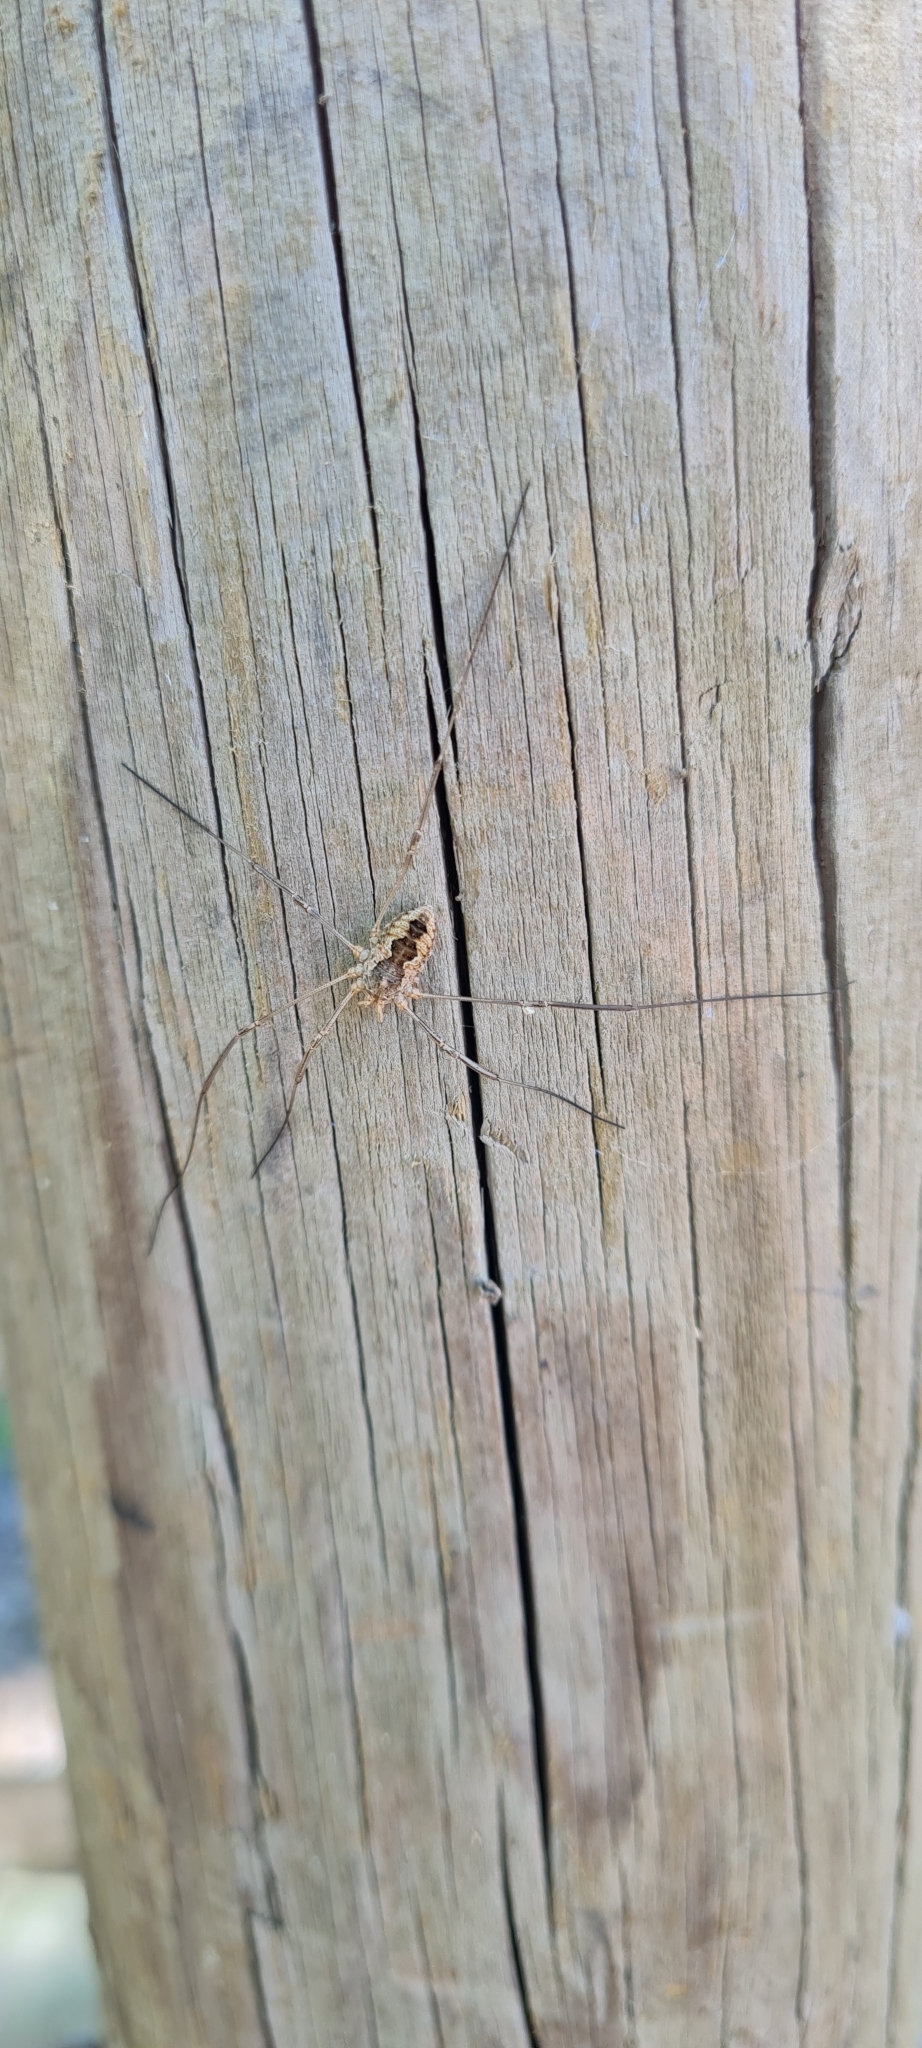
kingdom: Animalia
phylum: Arthropoda
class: Arachnida
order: Opiliones
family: Phalangiidae
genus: Phalangium
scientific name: Phalangium opilio
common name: Daddy longleg
